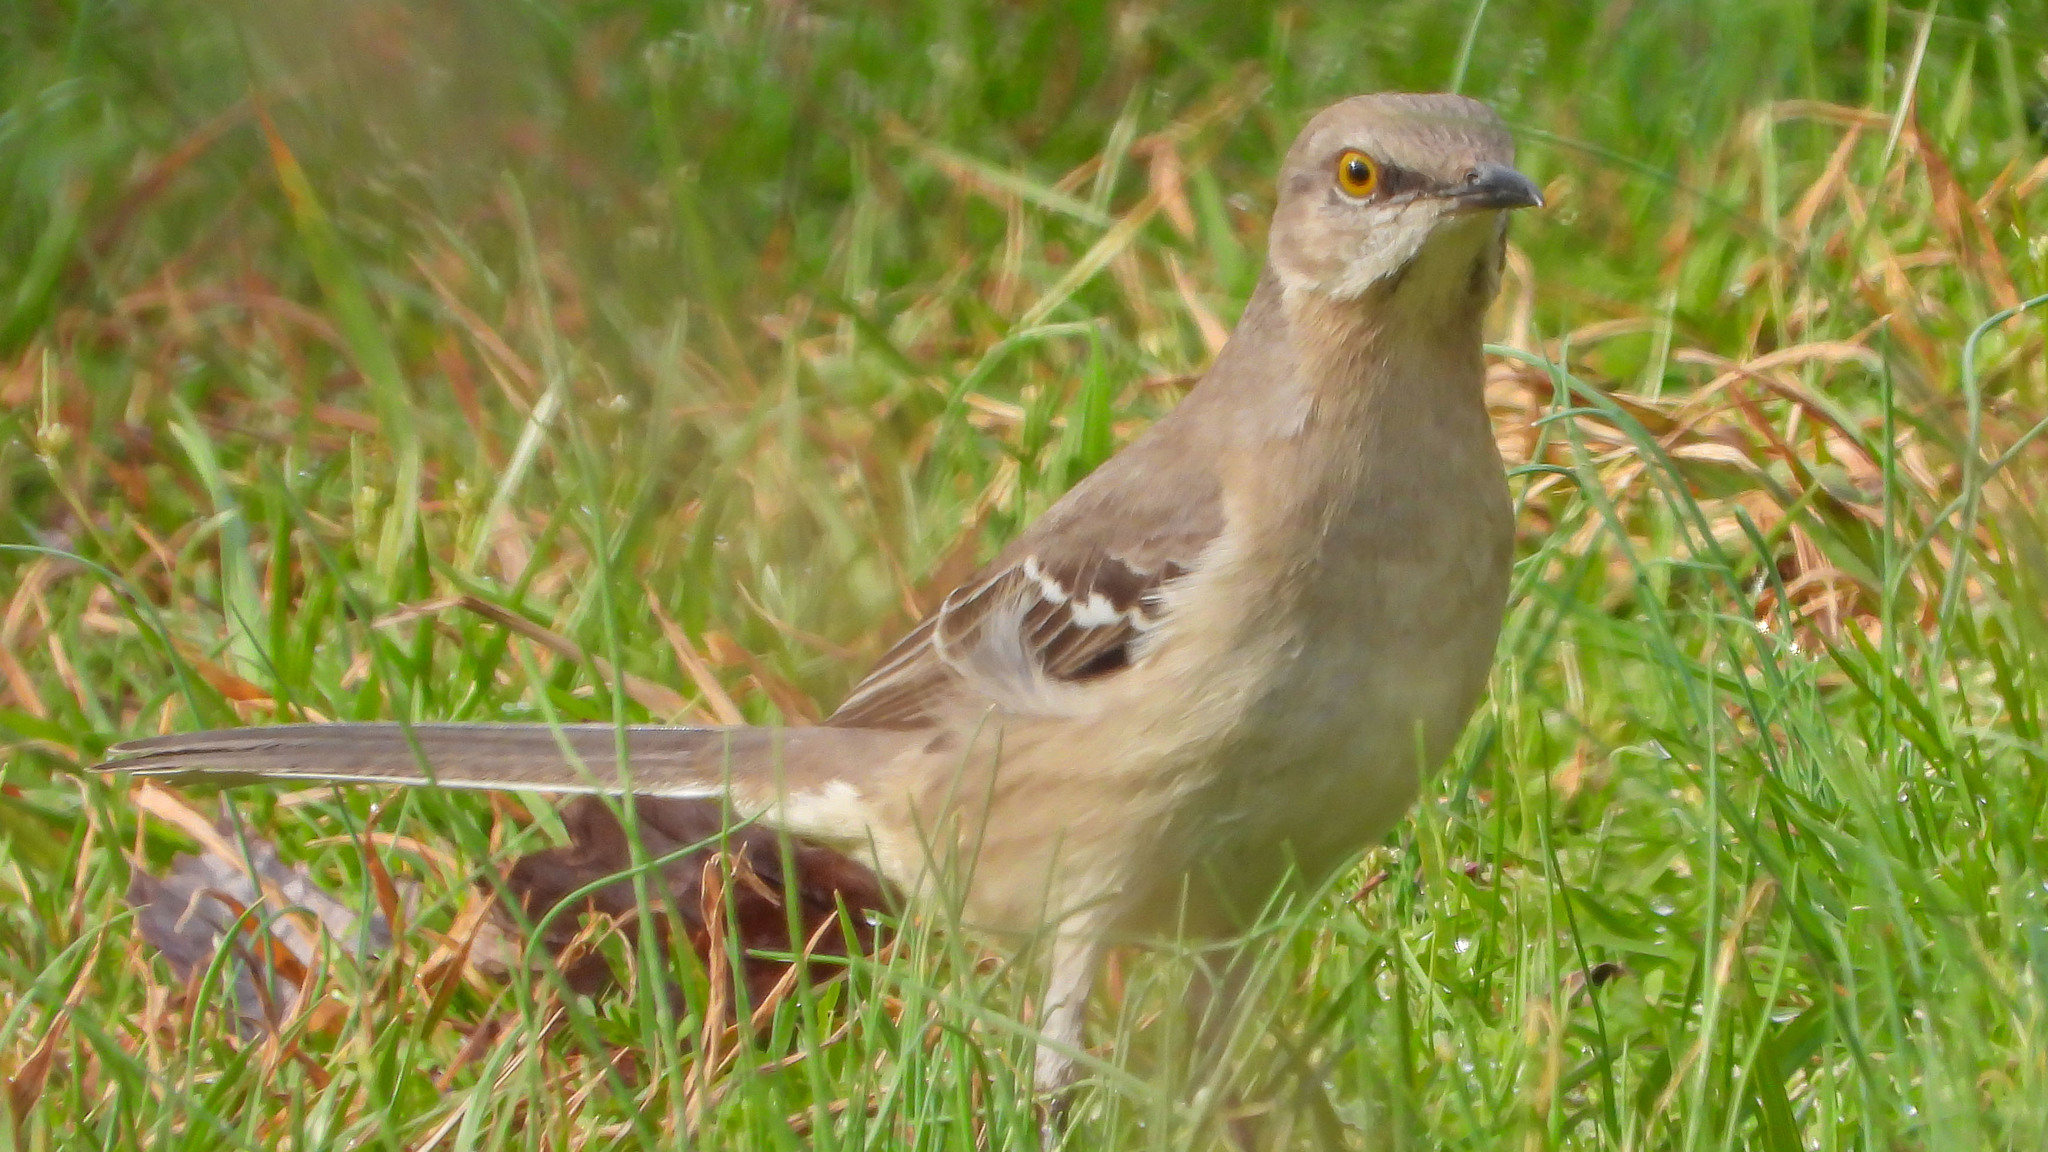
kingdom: Animalia
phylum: Chordata
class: Aves
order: Passeriformes
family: Mimidae
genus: Mimus
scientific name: Mimus polyglottos
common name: Northern mockingbird
